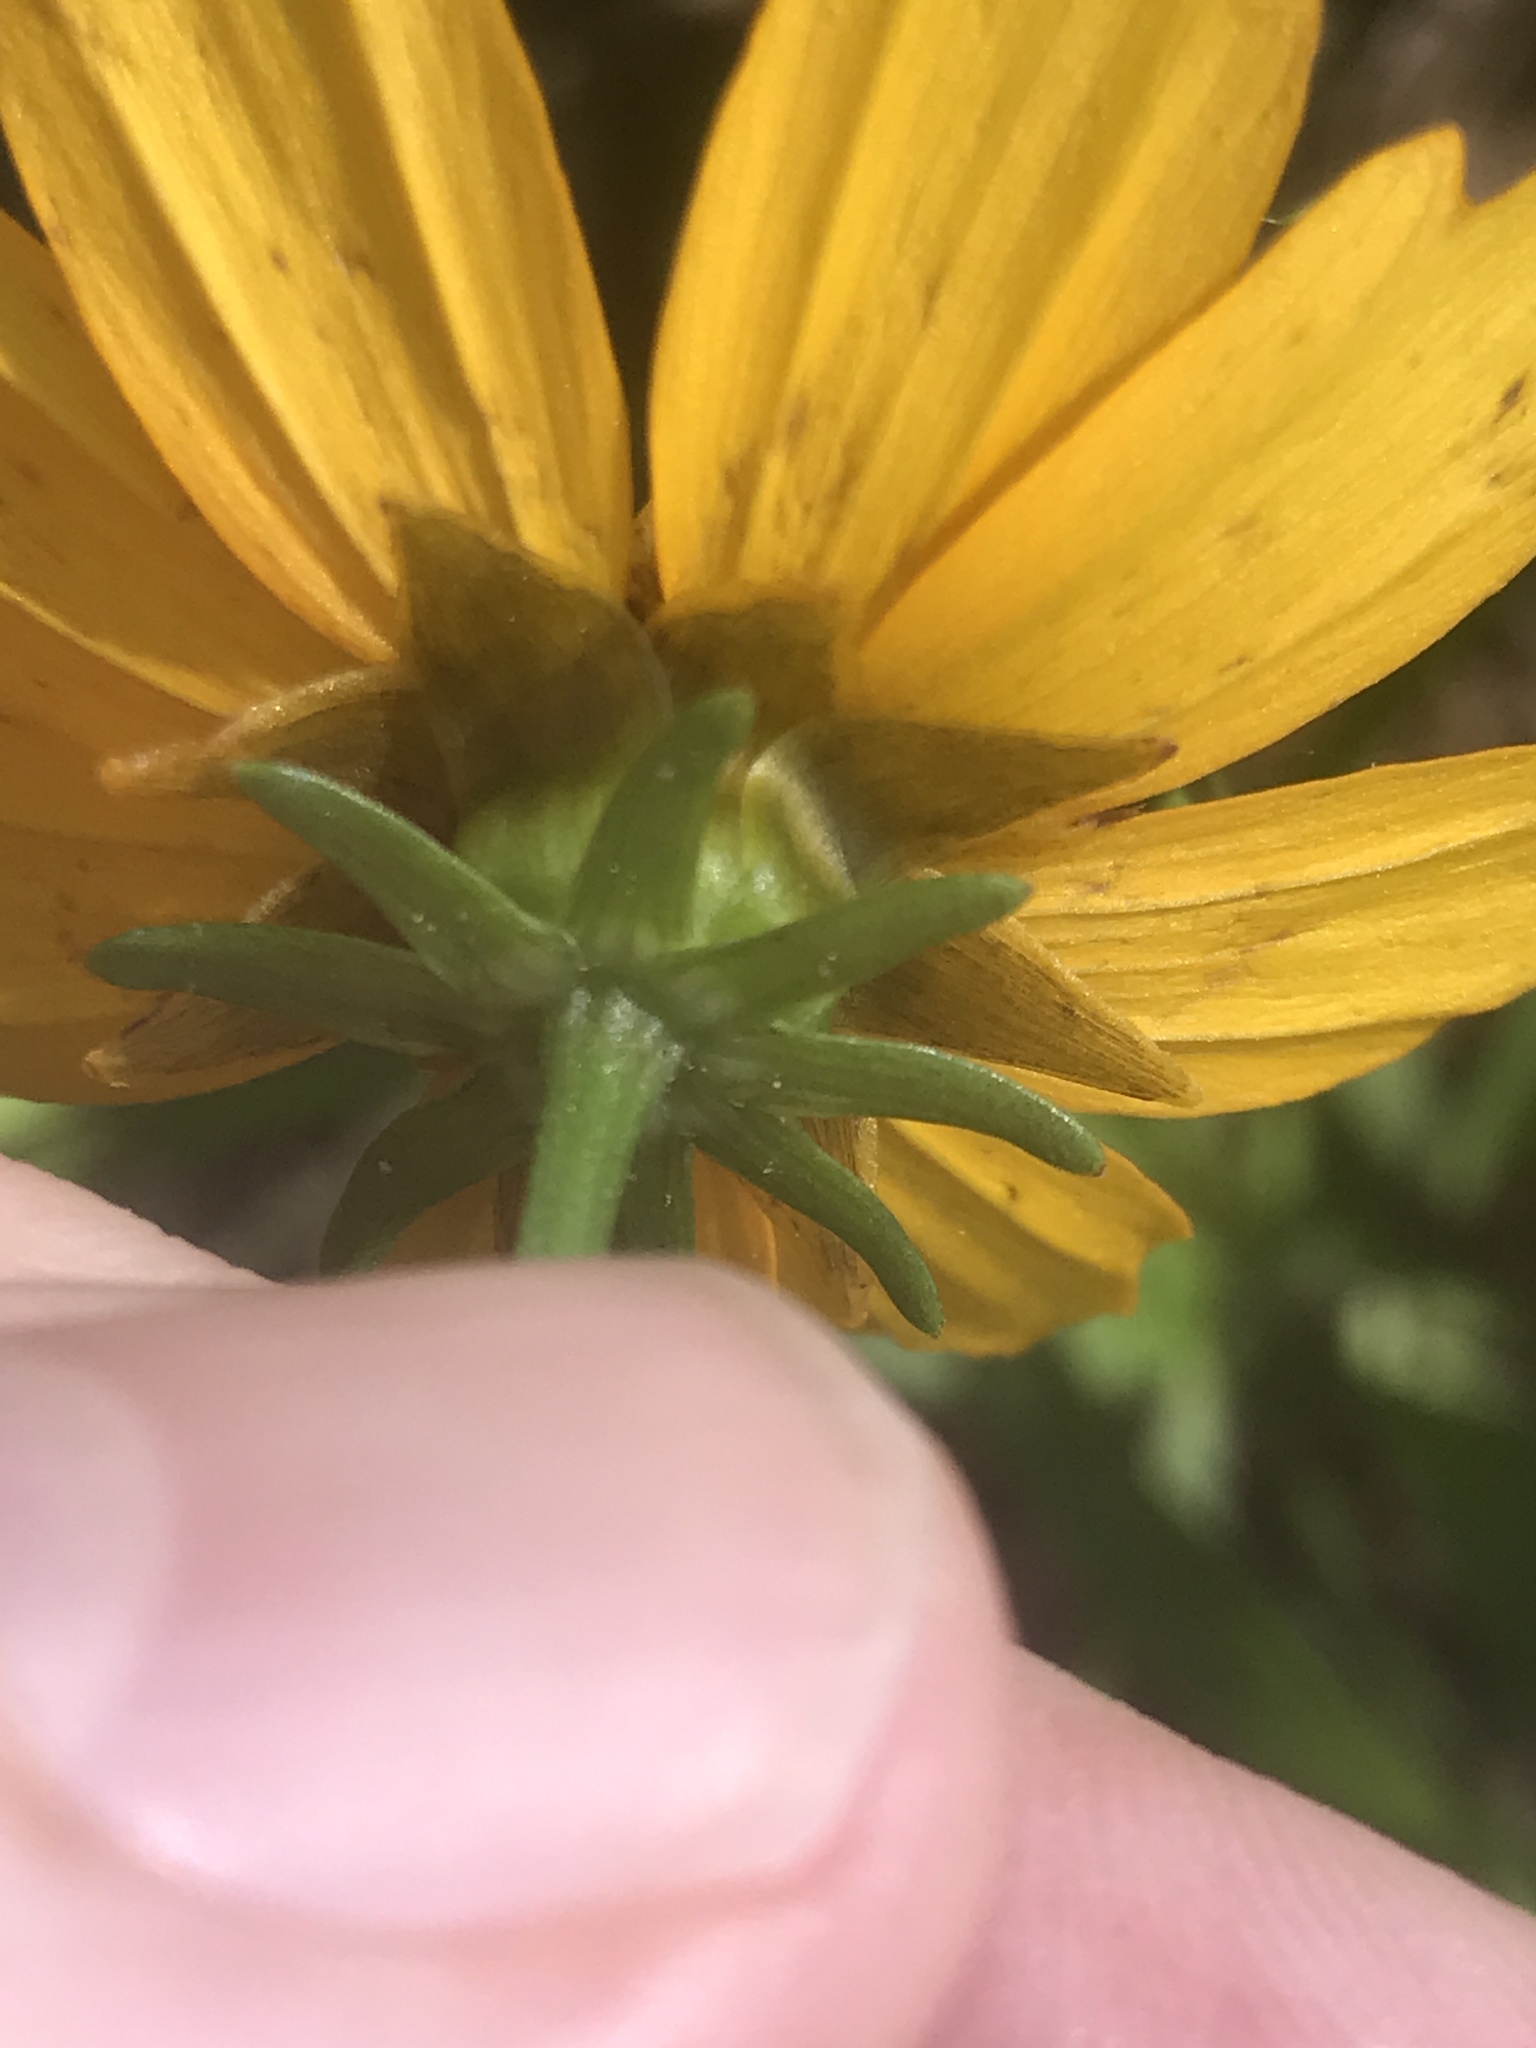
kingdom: Plantae
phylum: Tracheophyta
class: Magnoliopsida
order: Asterales
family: Asteraceae
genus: Coreopsis
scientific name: Coreopsis auriculata
